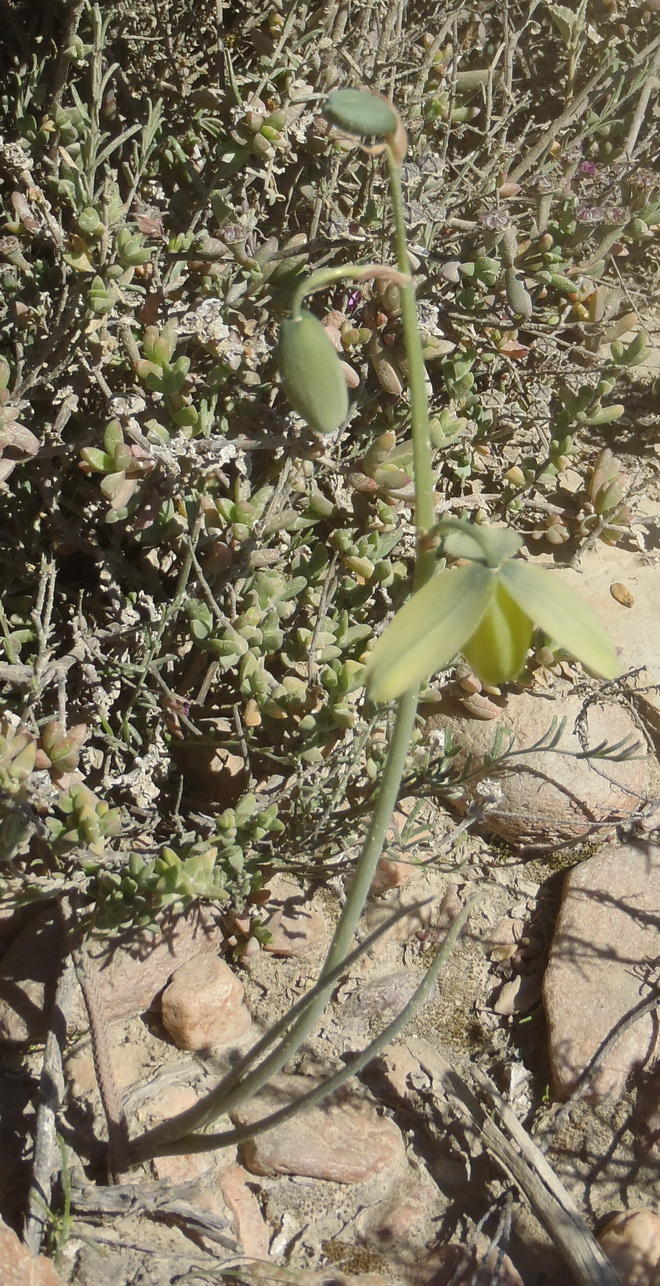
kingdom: Plantae
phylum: Tracheophyta
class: Liliopsida
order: Asparagales
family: Asparagaceae
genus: Albuca
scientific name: Albuca juncifolia
